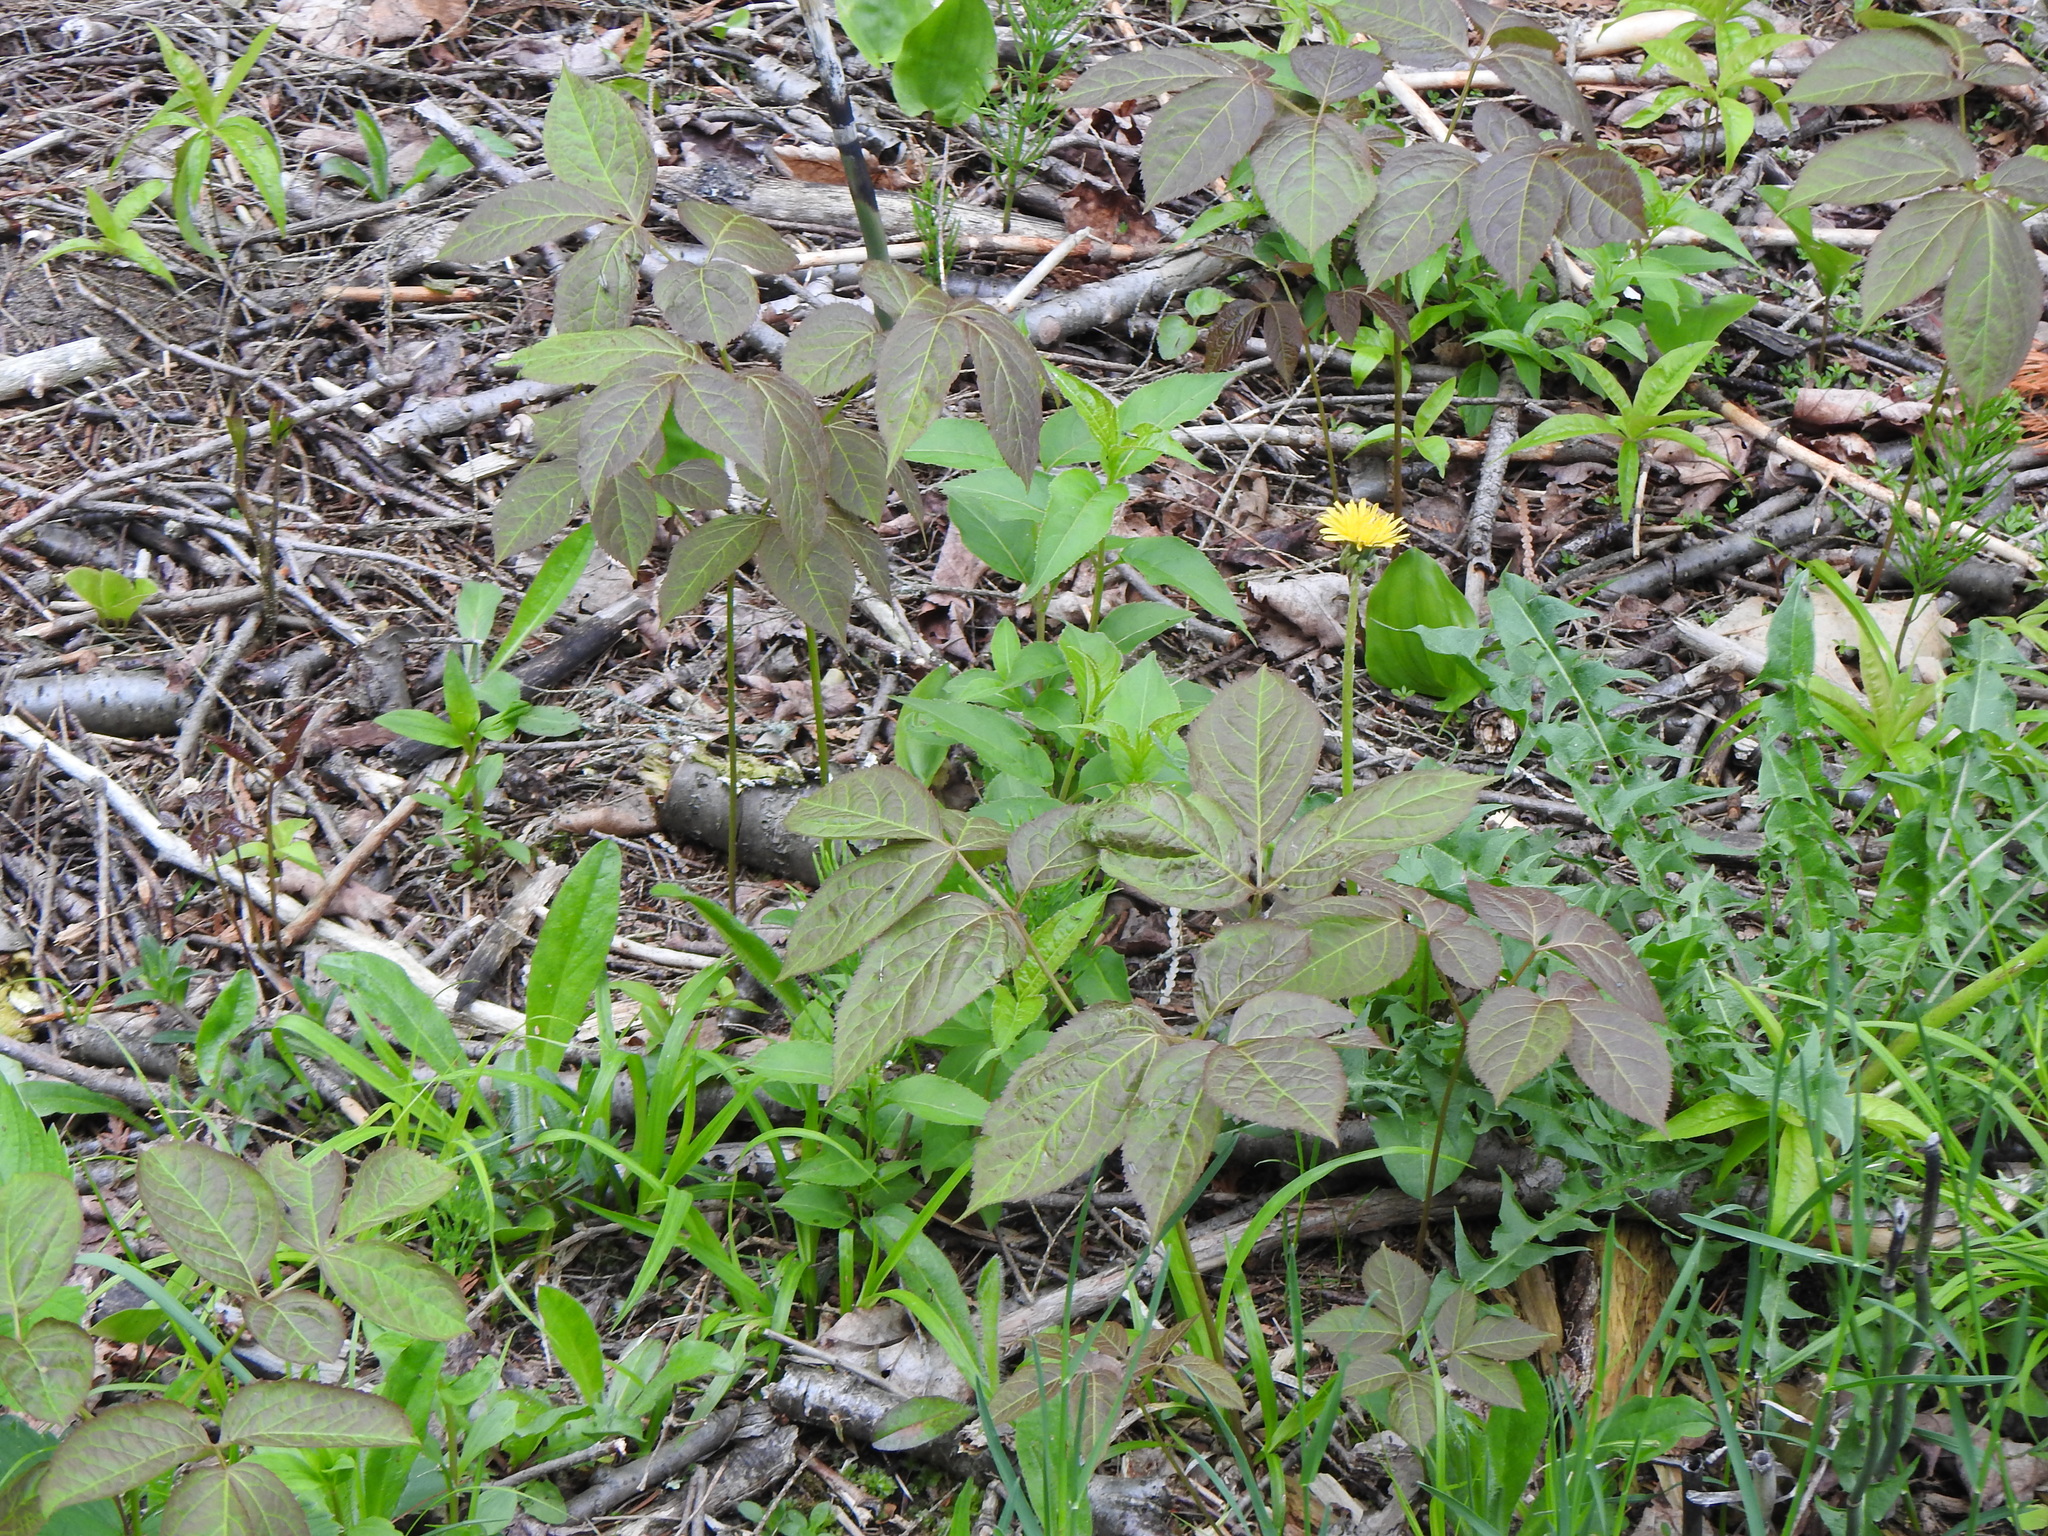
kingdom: Plantae
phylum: Tracheophyta
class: Magnoliopsida
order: Apiales
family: Araliaceae
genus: Aralia
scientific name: Aralia nudicaulis
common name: Wild sarsaparilla
